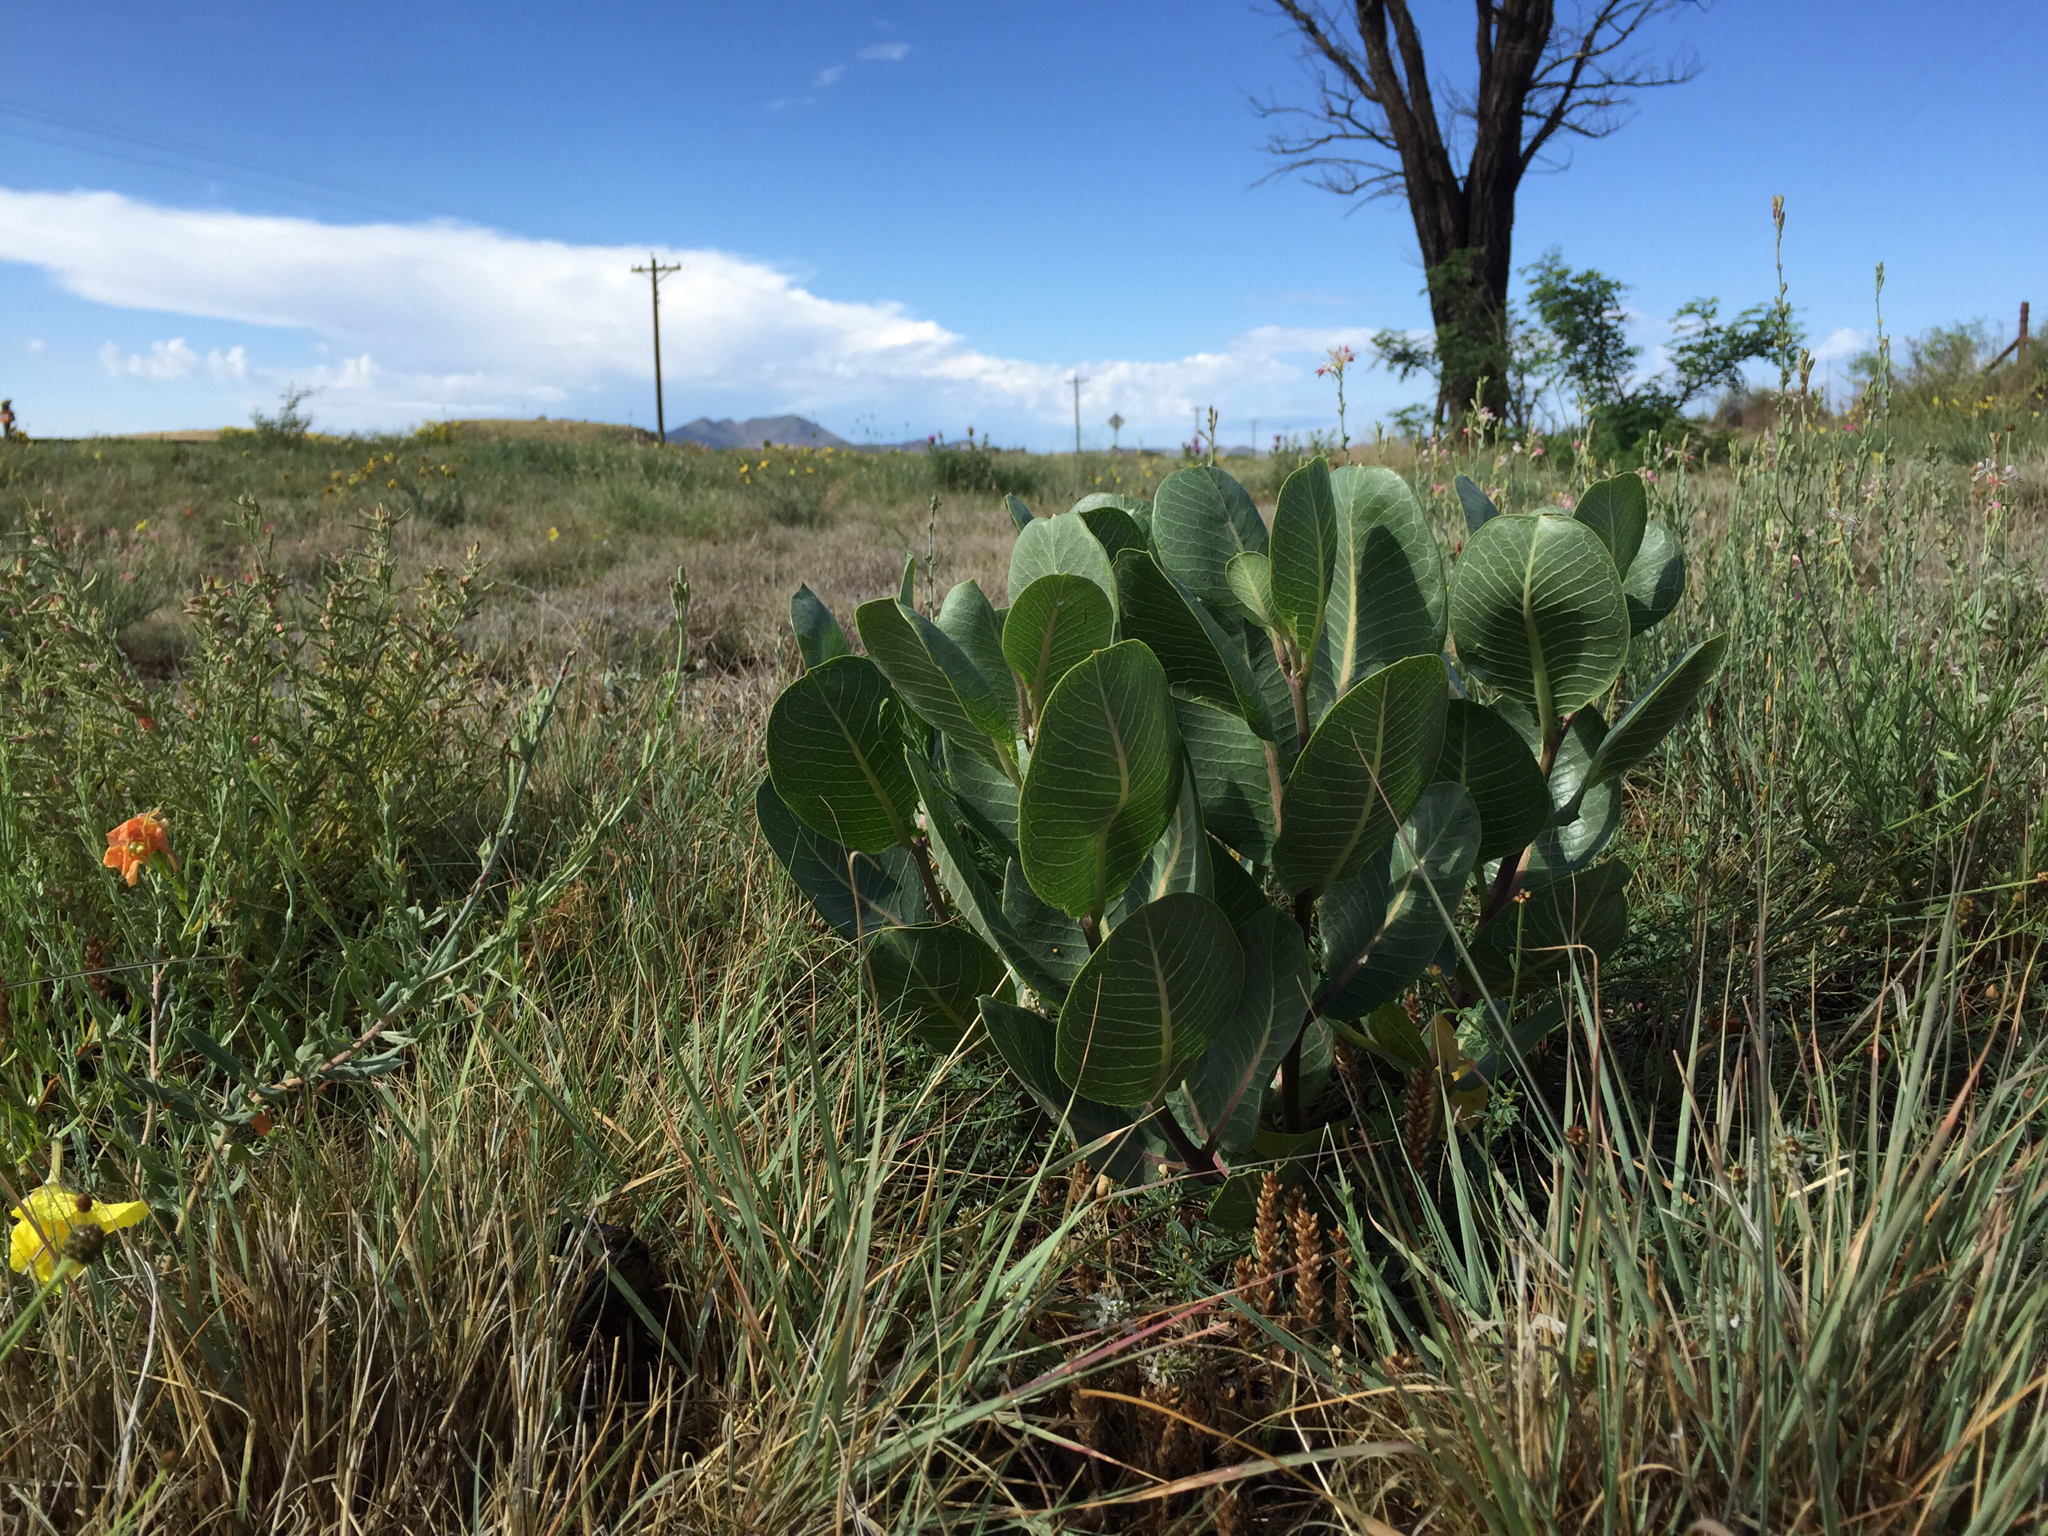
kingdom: Plantae
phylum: Tracheophyta
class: Magnoliopsida
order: Gentianales
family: Apocynaceae
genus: Asclepias
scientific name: Asclepias latifolia
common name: Broadleaf milkweed
